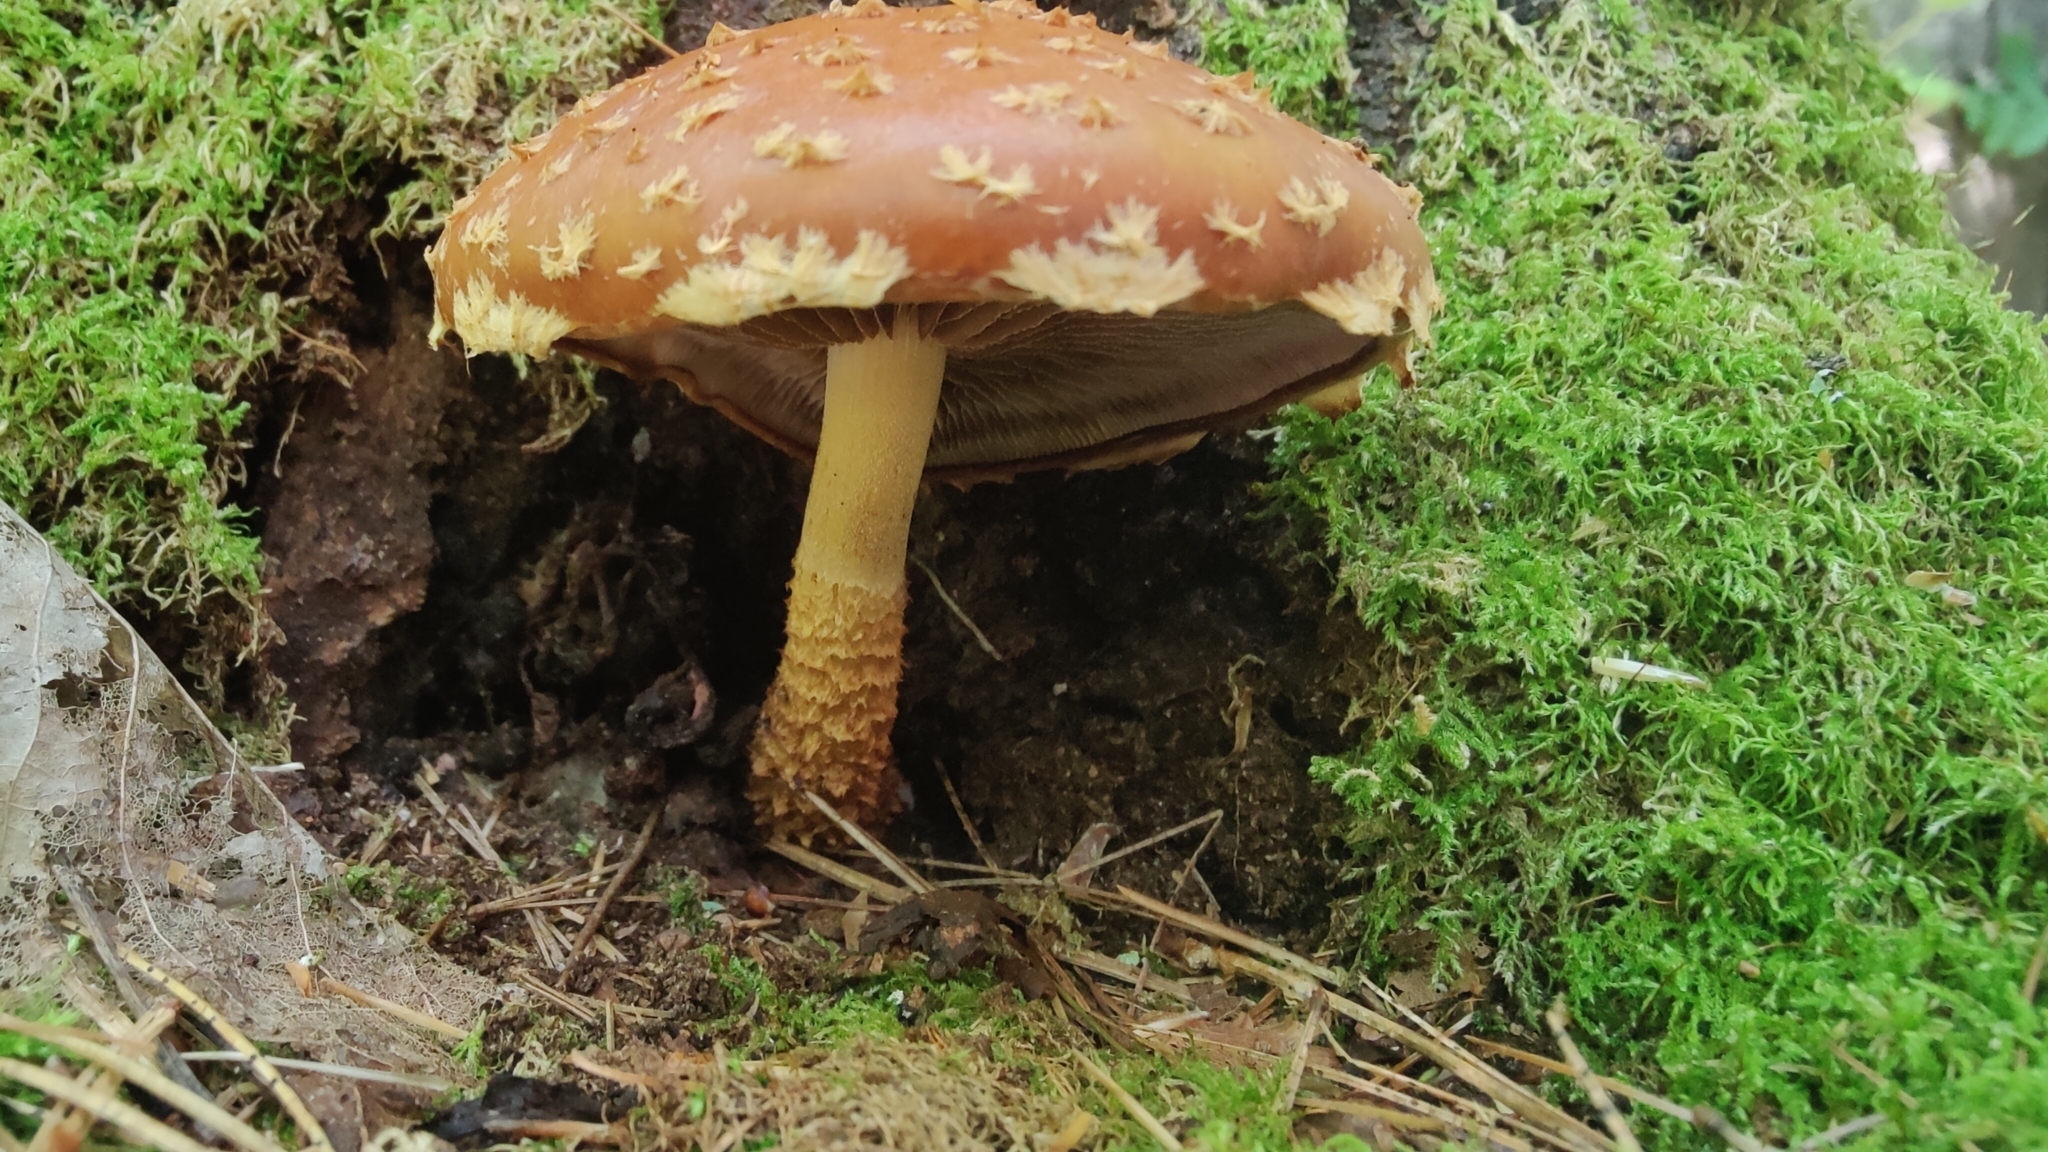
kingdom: Fungi
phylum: Basidiomycota
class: Agaricomycetes
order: Agaricales
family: Tubariaceae
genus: Hemistropharia
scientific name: Hemistropharia albocrenulata
